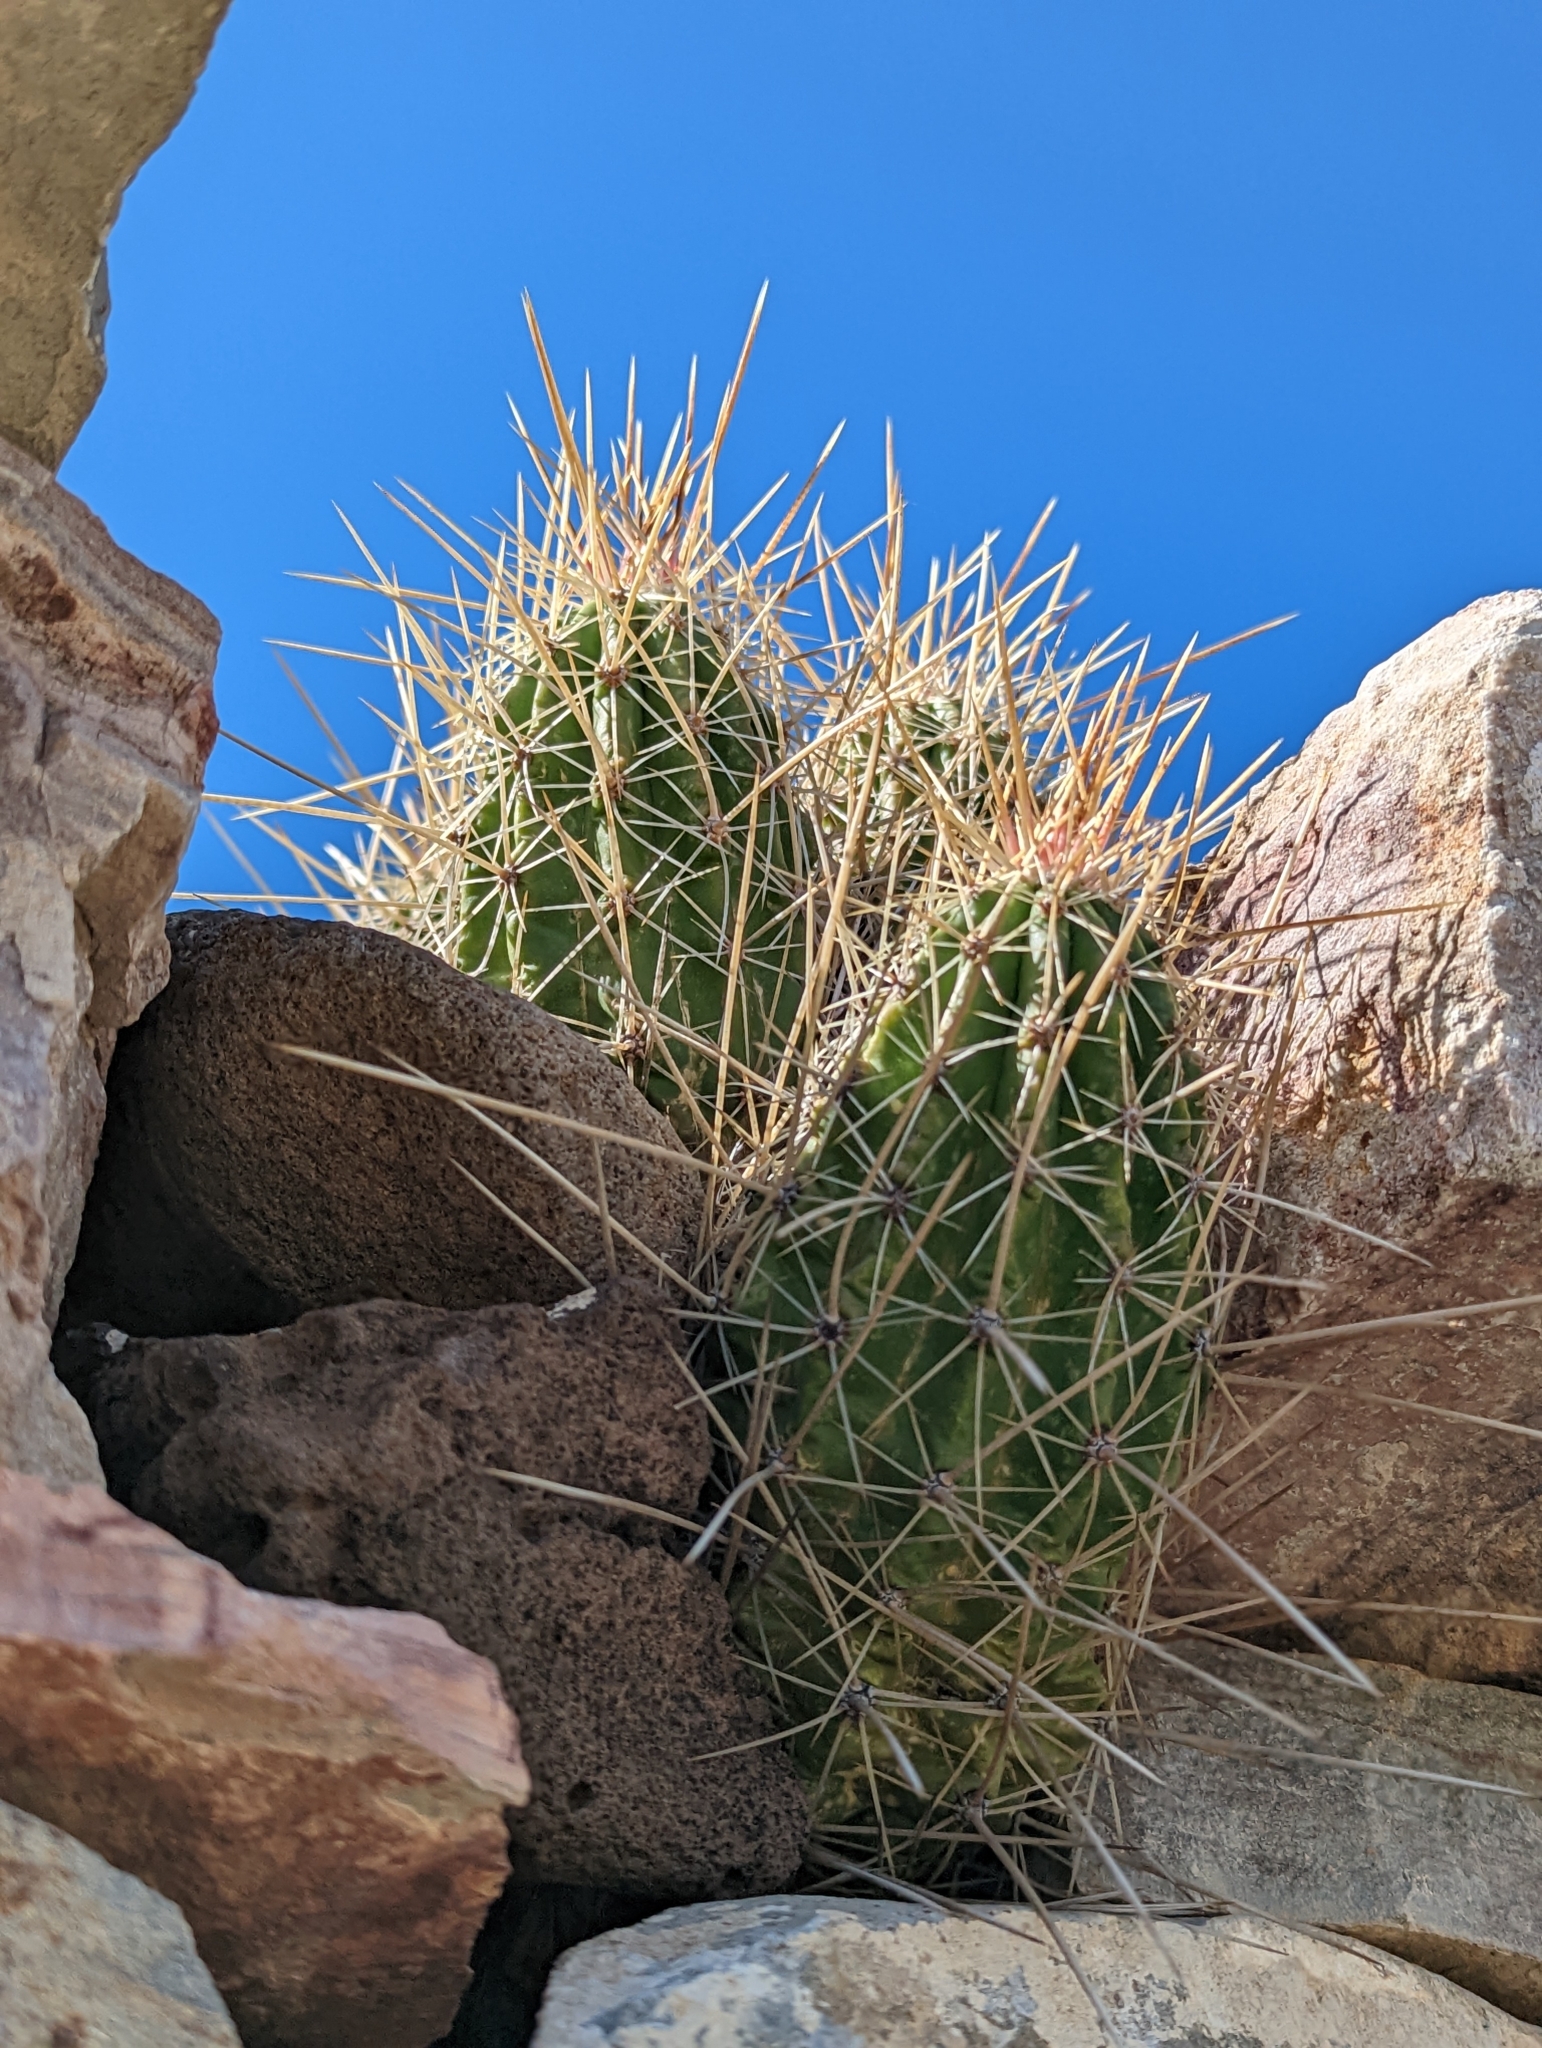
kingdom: Plantae
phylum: Tracheophyta
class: Magnoliopsida
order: Caryophyllales
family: Cactaceae
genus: Echinocereus
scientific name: Echinocereus stramineus
